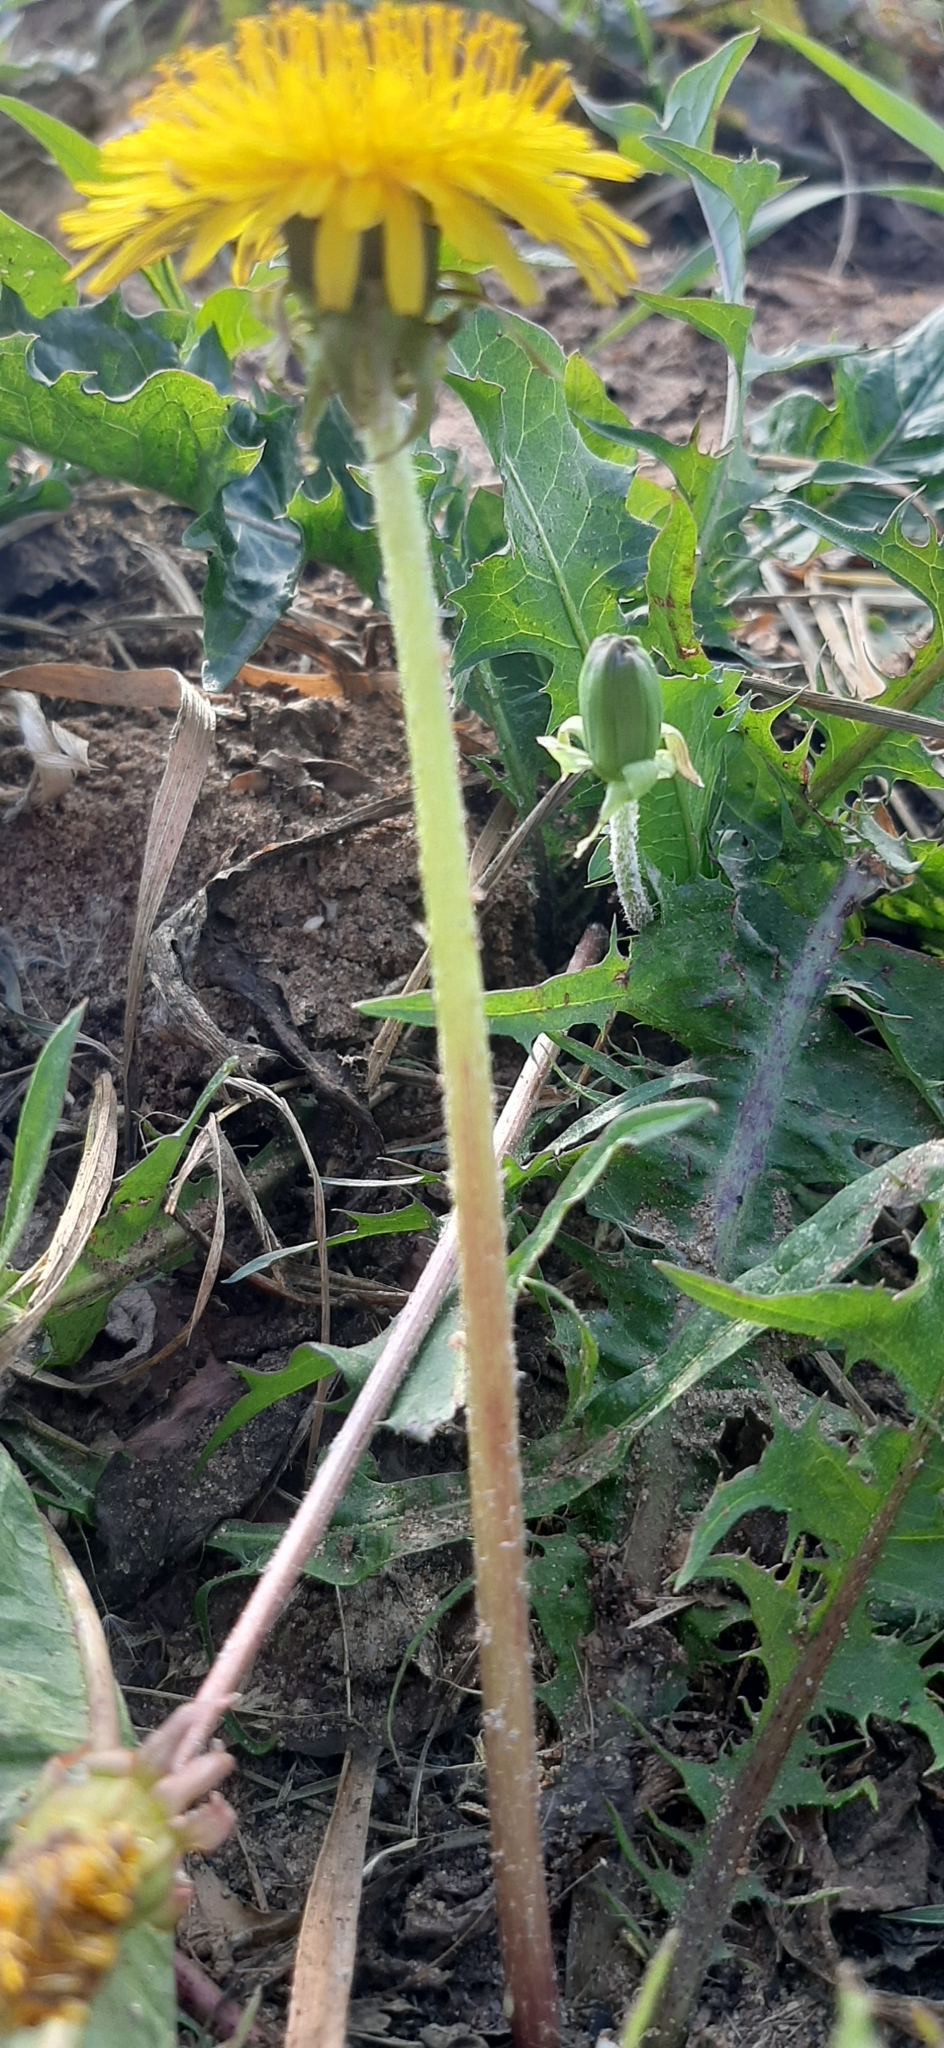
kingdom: Plantae
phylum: Tracheophyta
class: Magnoliopsida
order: Asterales
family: Asteraceae
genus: Taraxacum
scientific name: Taraxacum officinale
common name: Common dandelion
